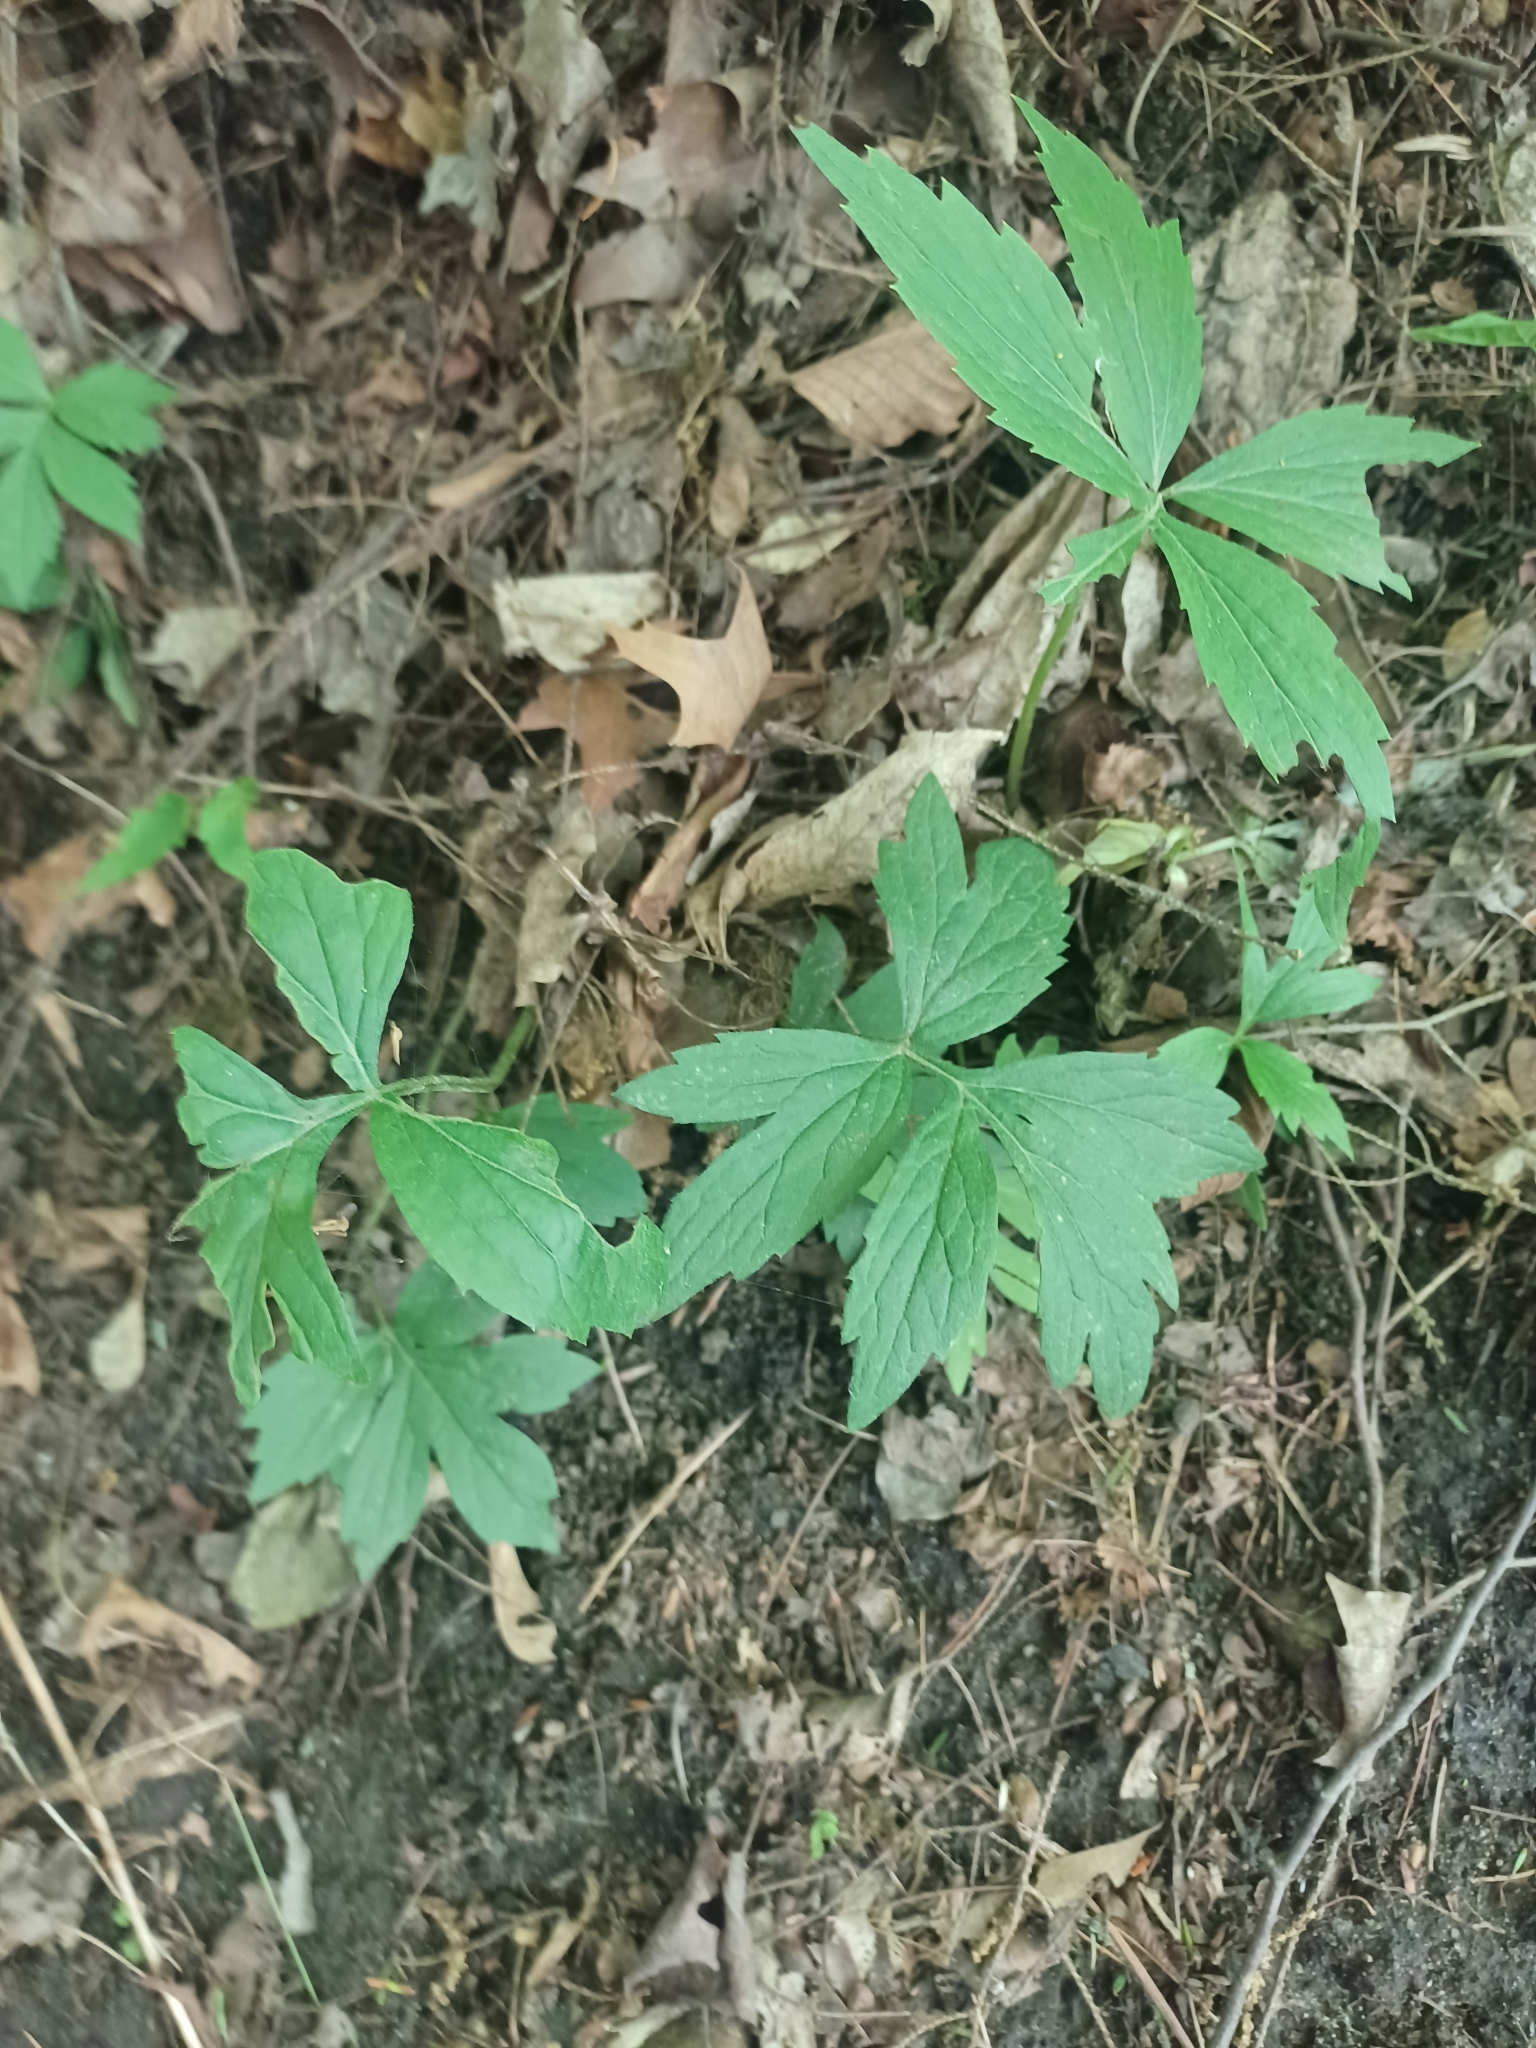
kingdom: Plantae
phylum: Tracheophyta
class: Magnoliopsida
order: Boraginales
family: Hydrophyllaceae
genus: Hydrophyllum
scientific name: Hydrophyllum virginianum
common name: Virginia waterleaf
